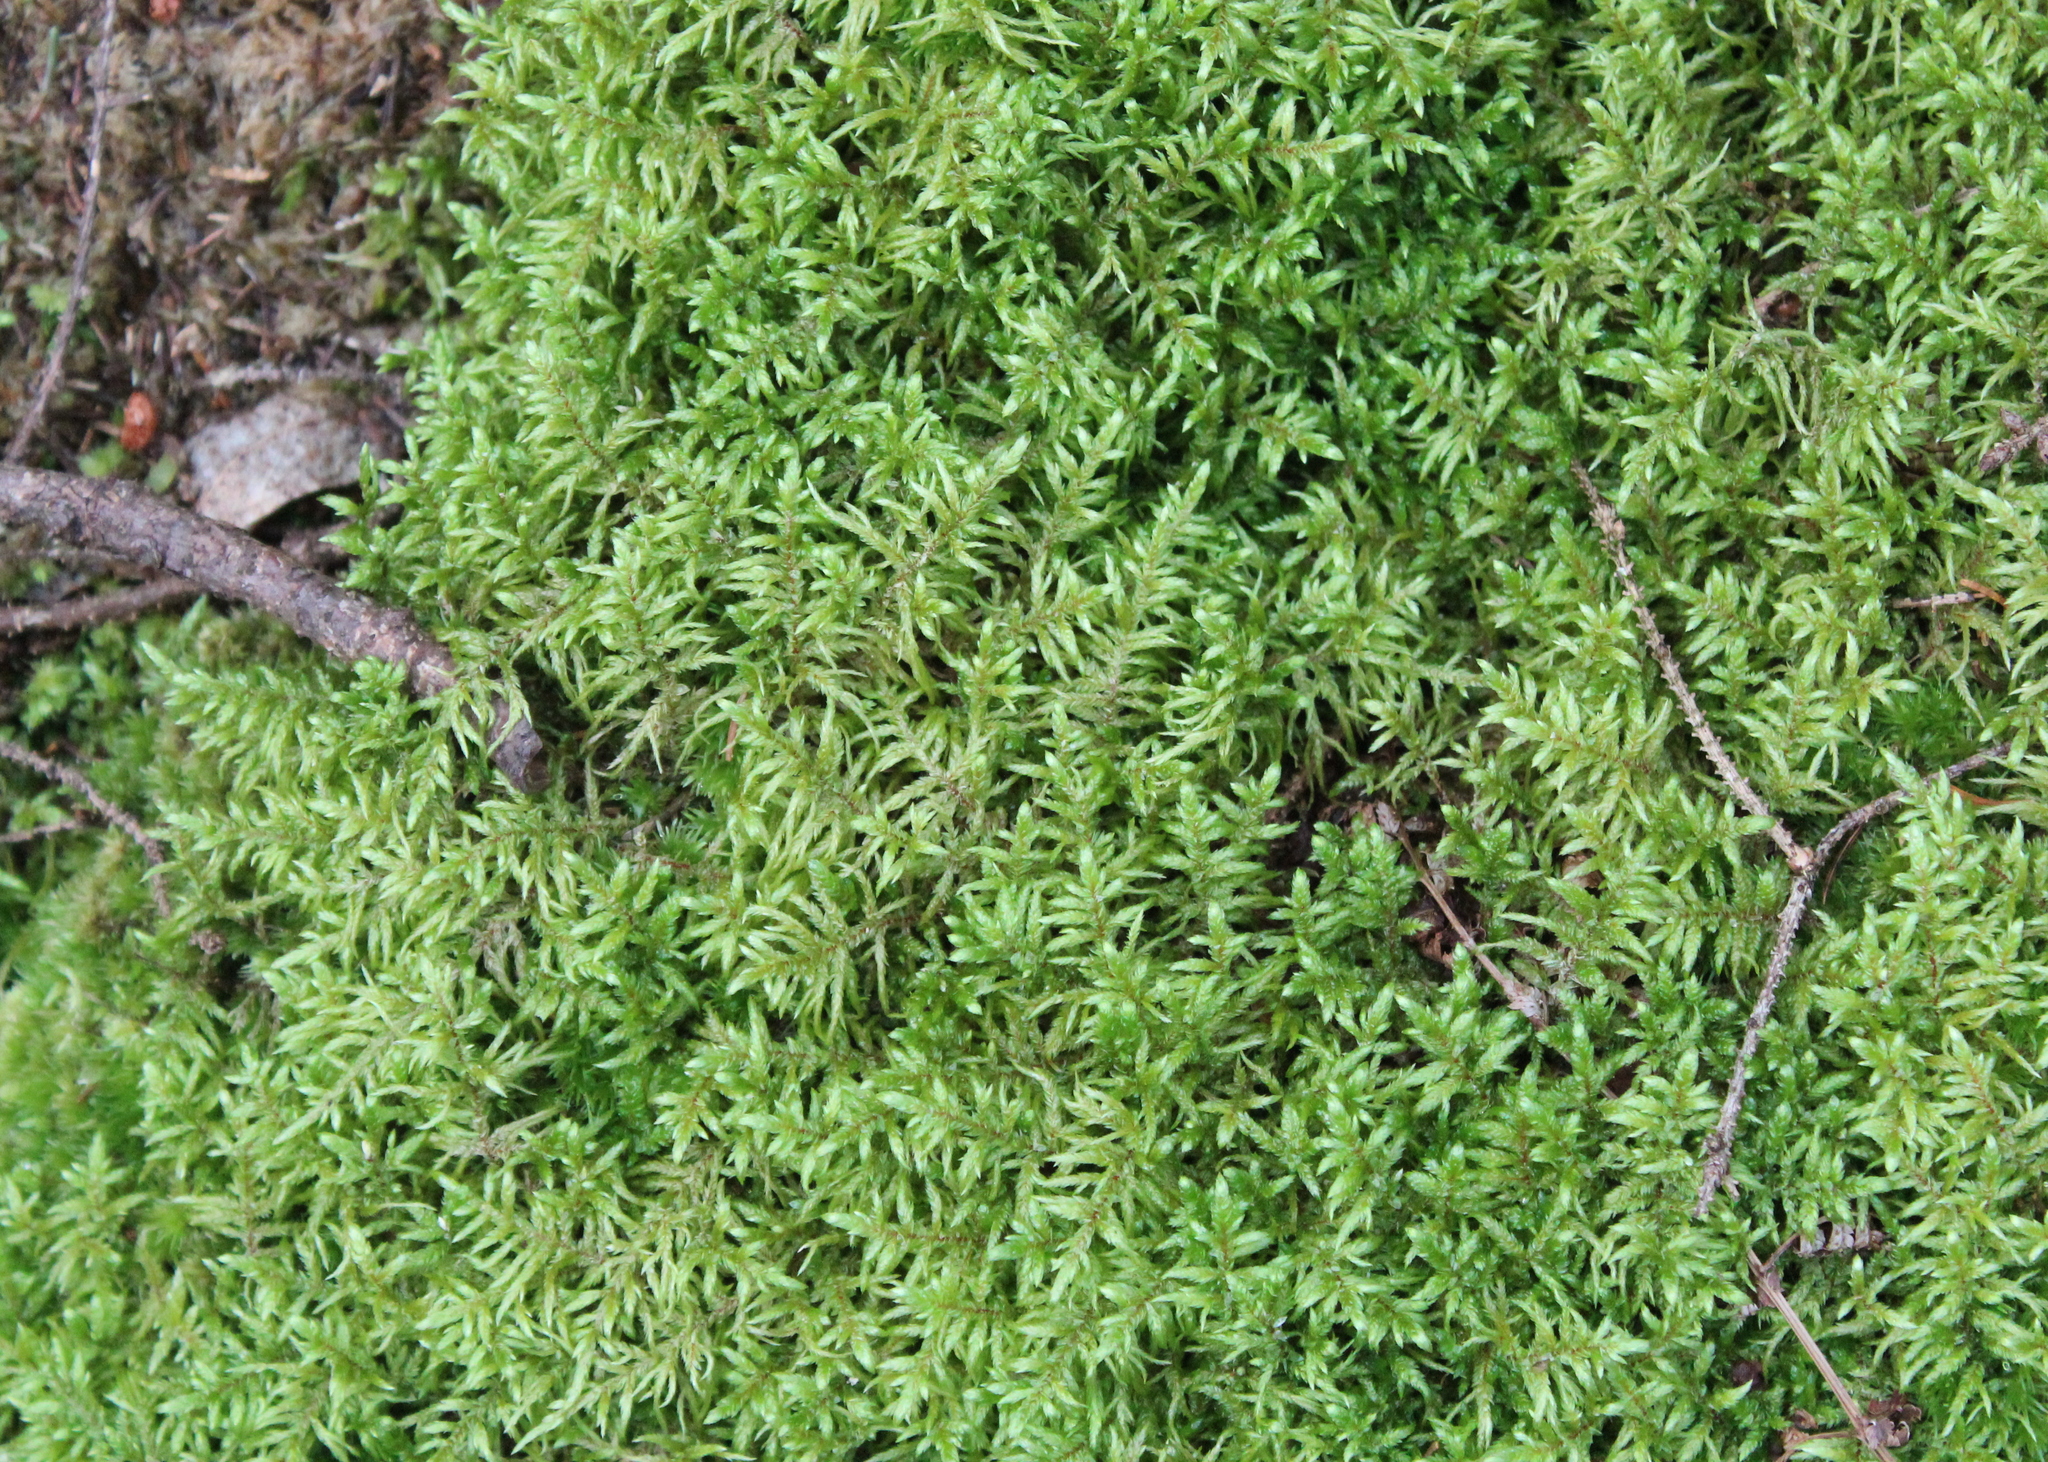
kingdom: Plantae
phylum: Bryophyta
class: Bryopsida
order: Hypnales
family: Hylocomiaceae
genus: Pleurozium
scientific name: Pleurozium schreberi
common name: Red-stemmed feather moss
